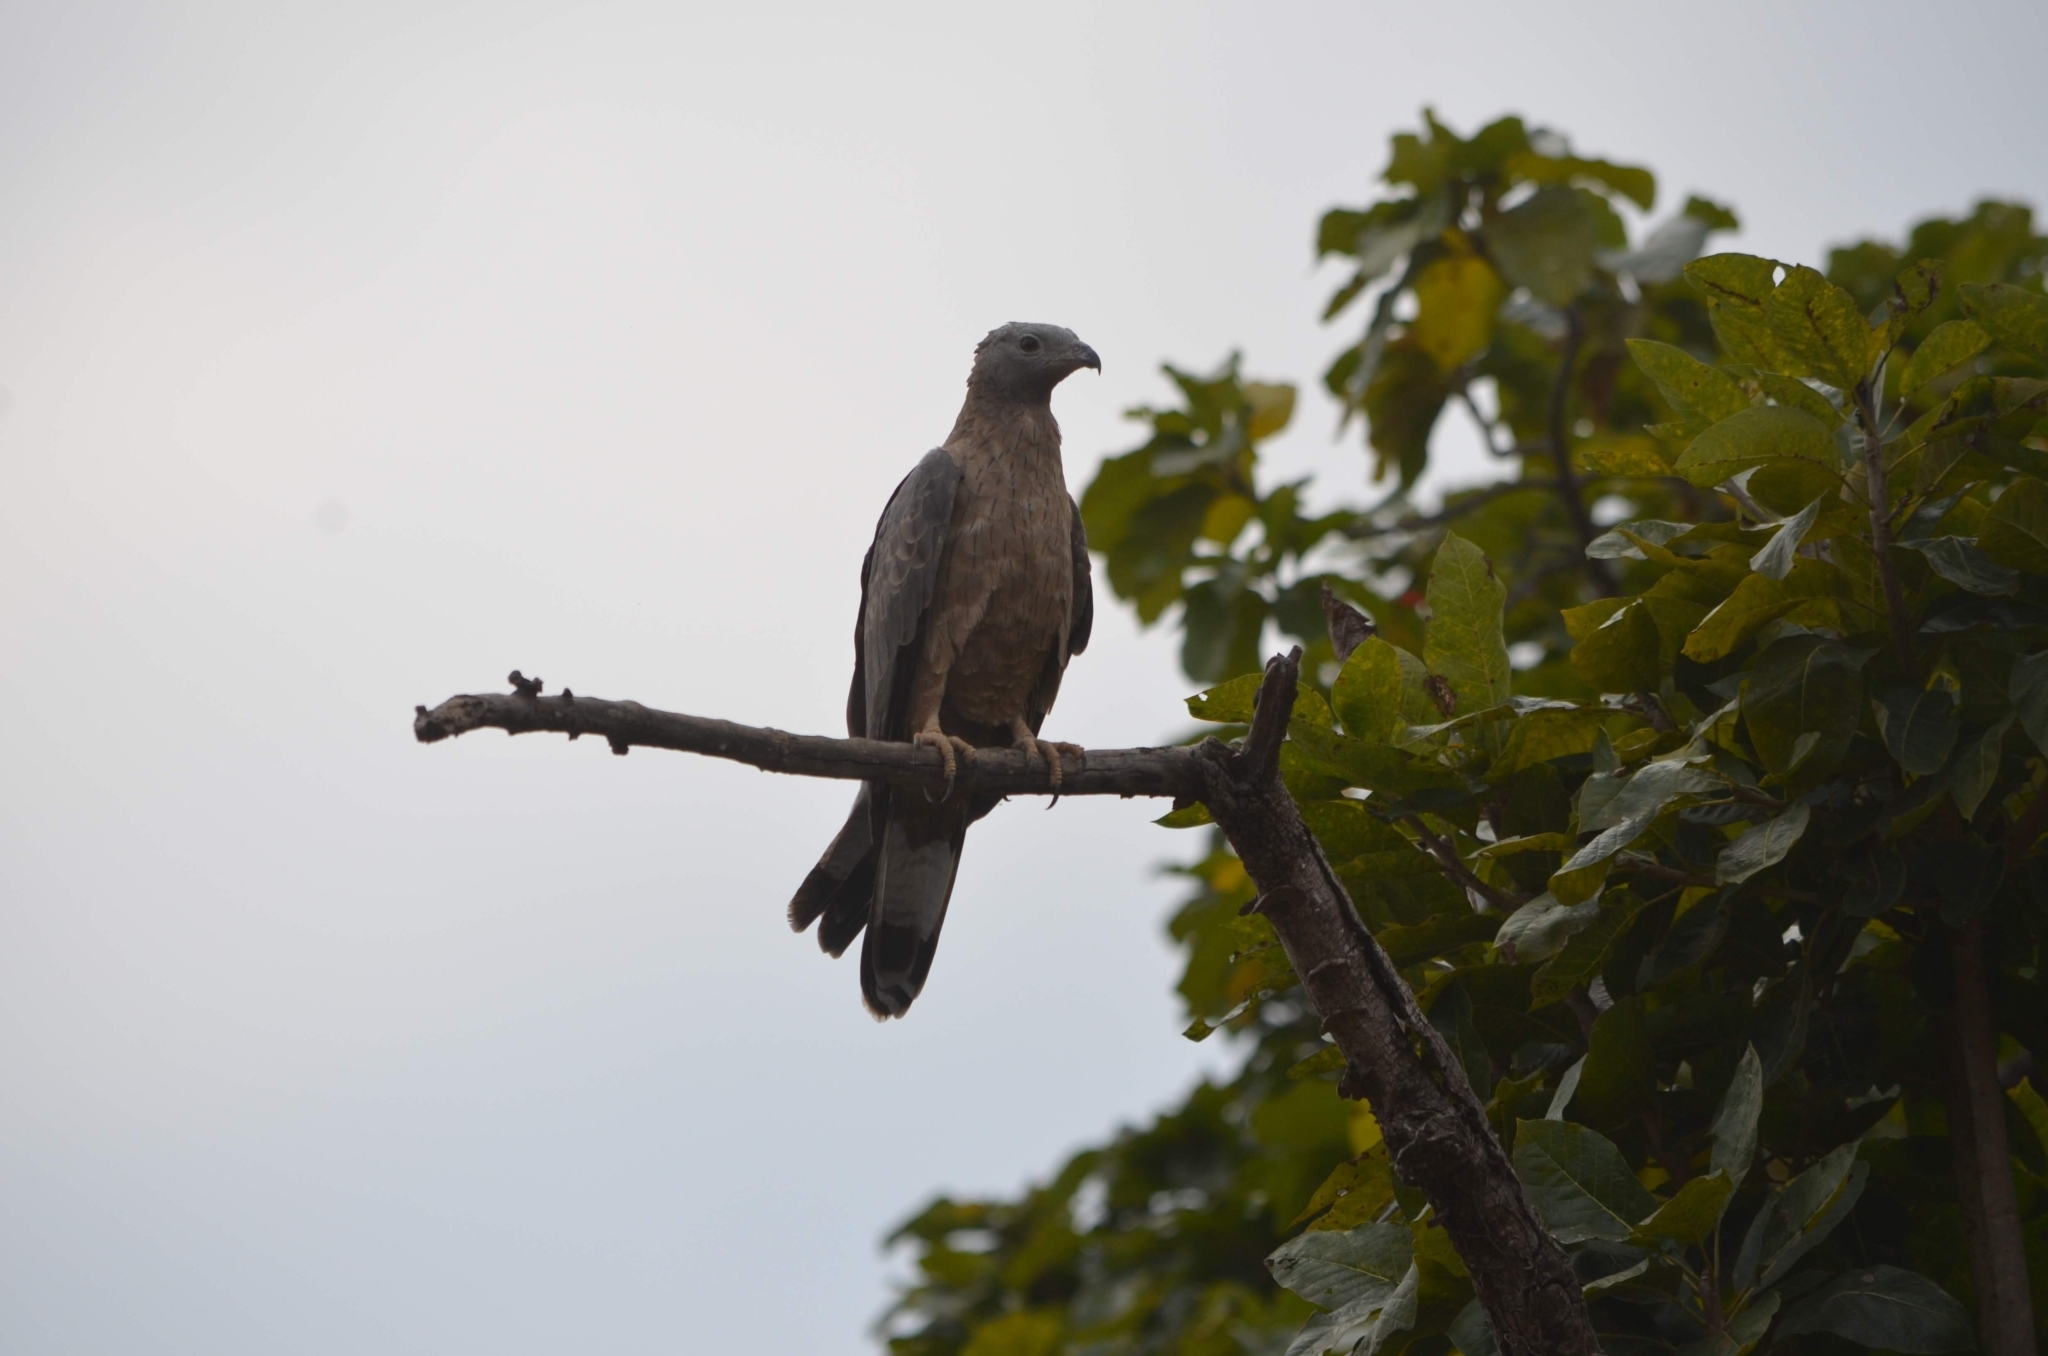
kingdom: Animalia
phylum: Chordata
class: Aves
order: Accipitriformes
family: Accipitridae
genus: Pernis
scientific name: Pernis ptilorhynchus
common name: Crested honey buzzard
